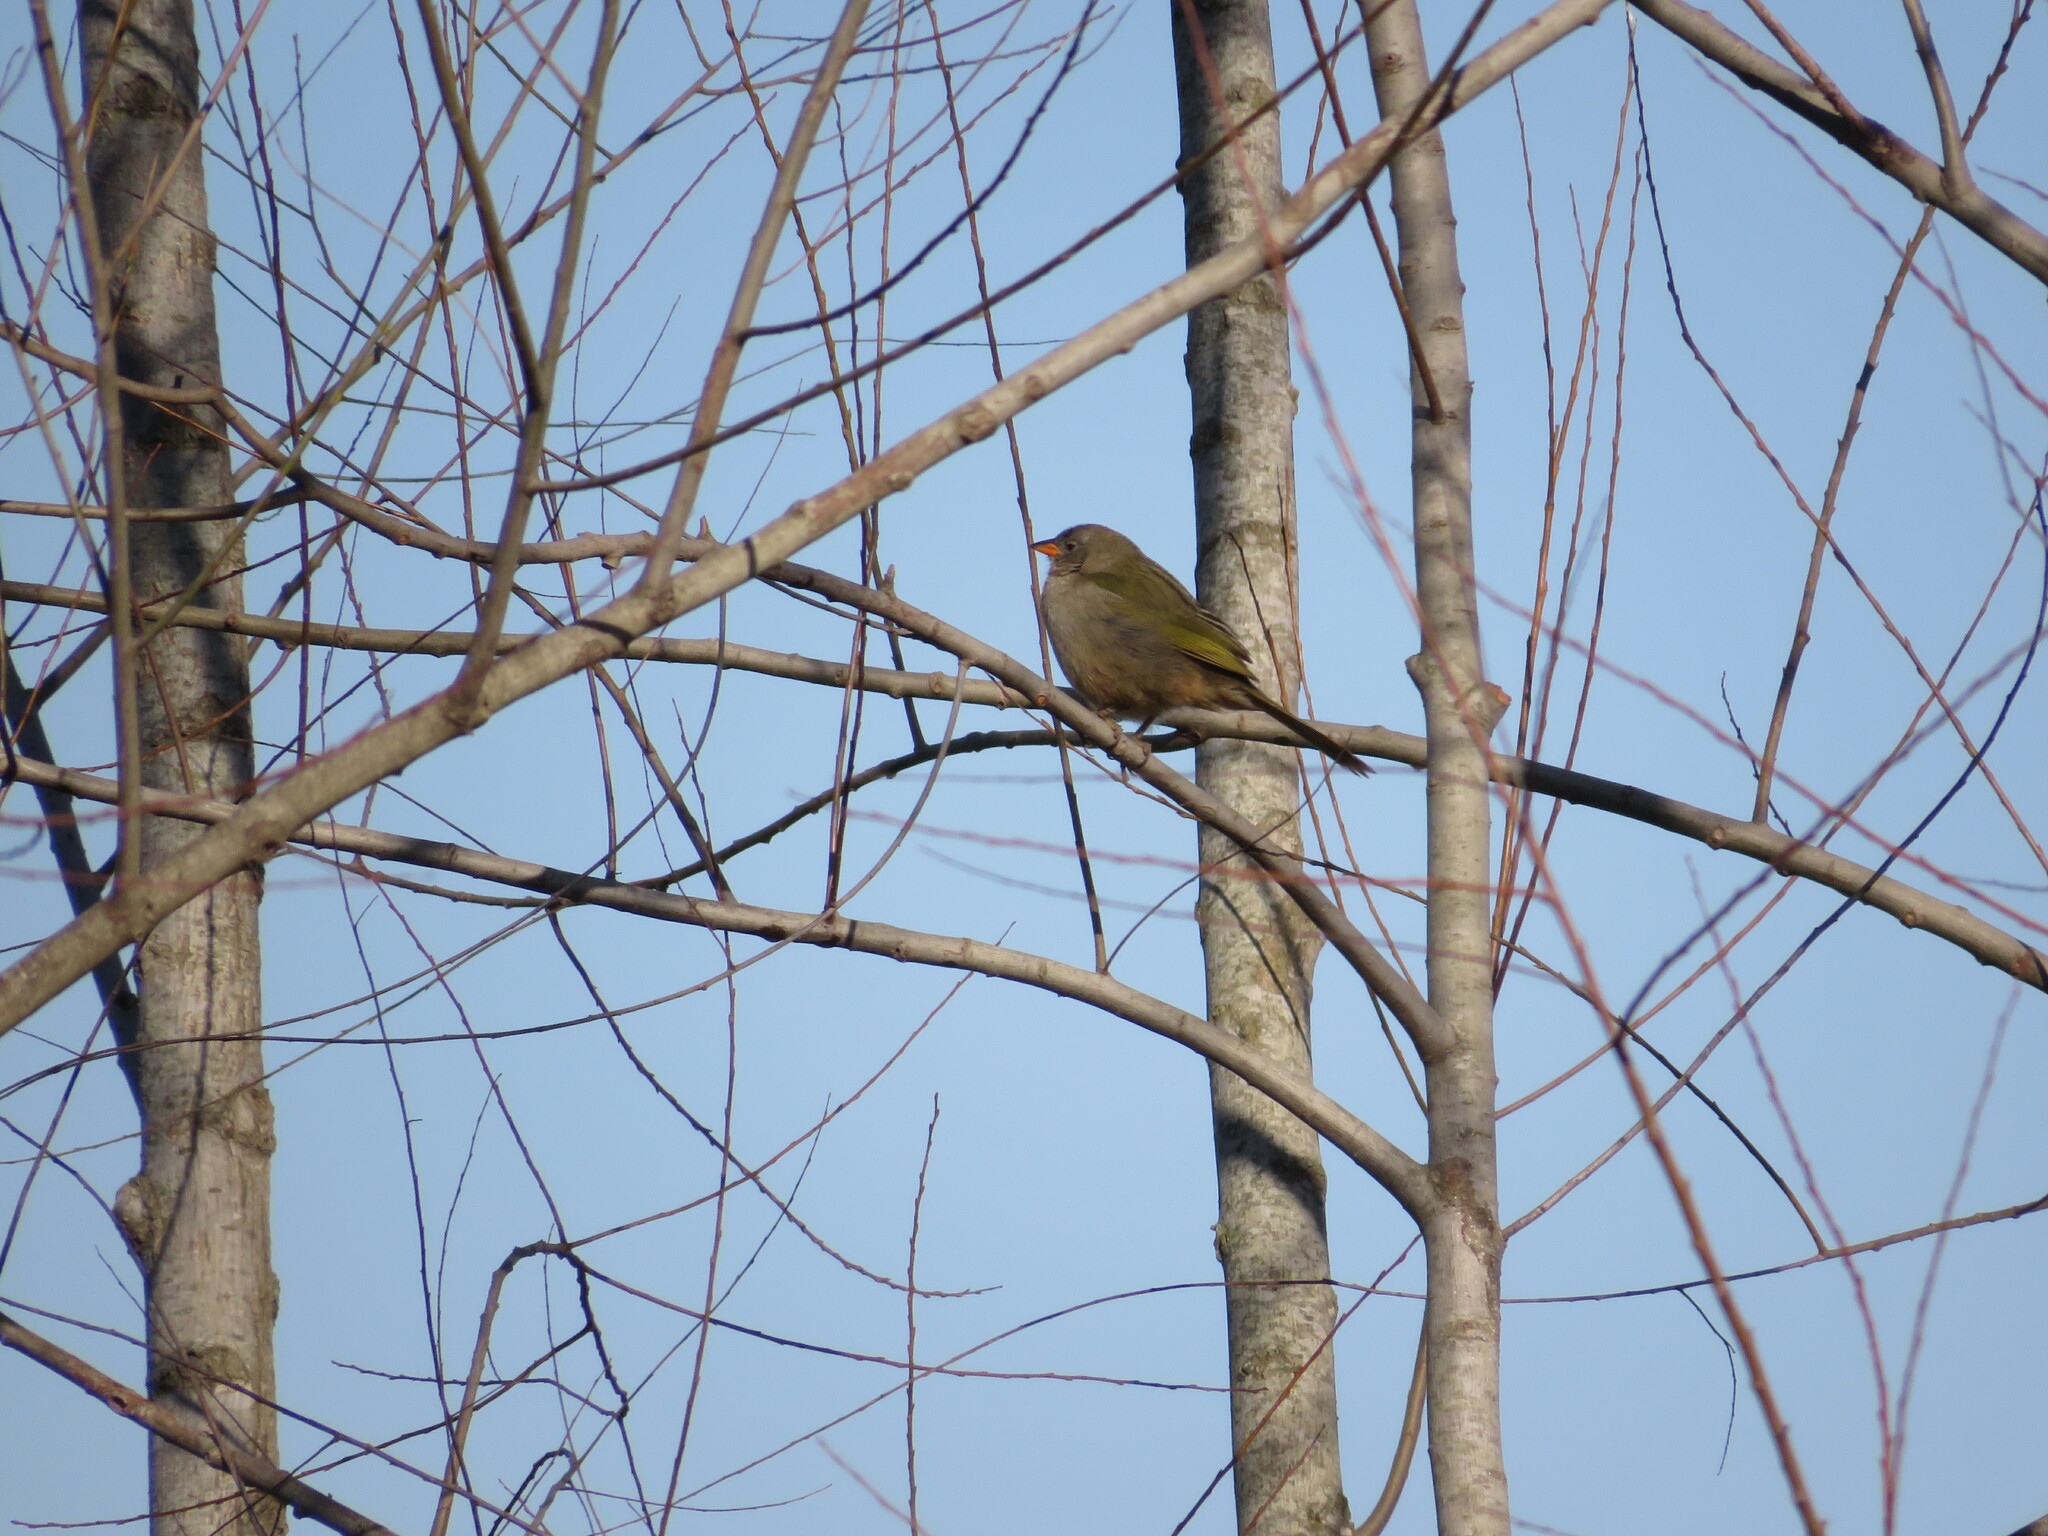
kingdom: Animalia
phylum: Chordata
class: Aves
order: Passeriformes
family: Thraupidae
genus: Embernagra
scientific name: Embernagra platensis
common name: Pampa finch
